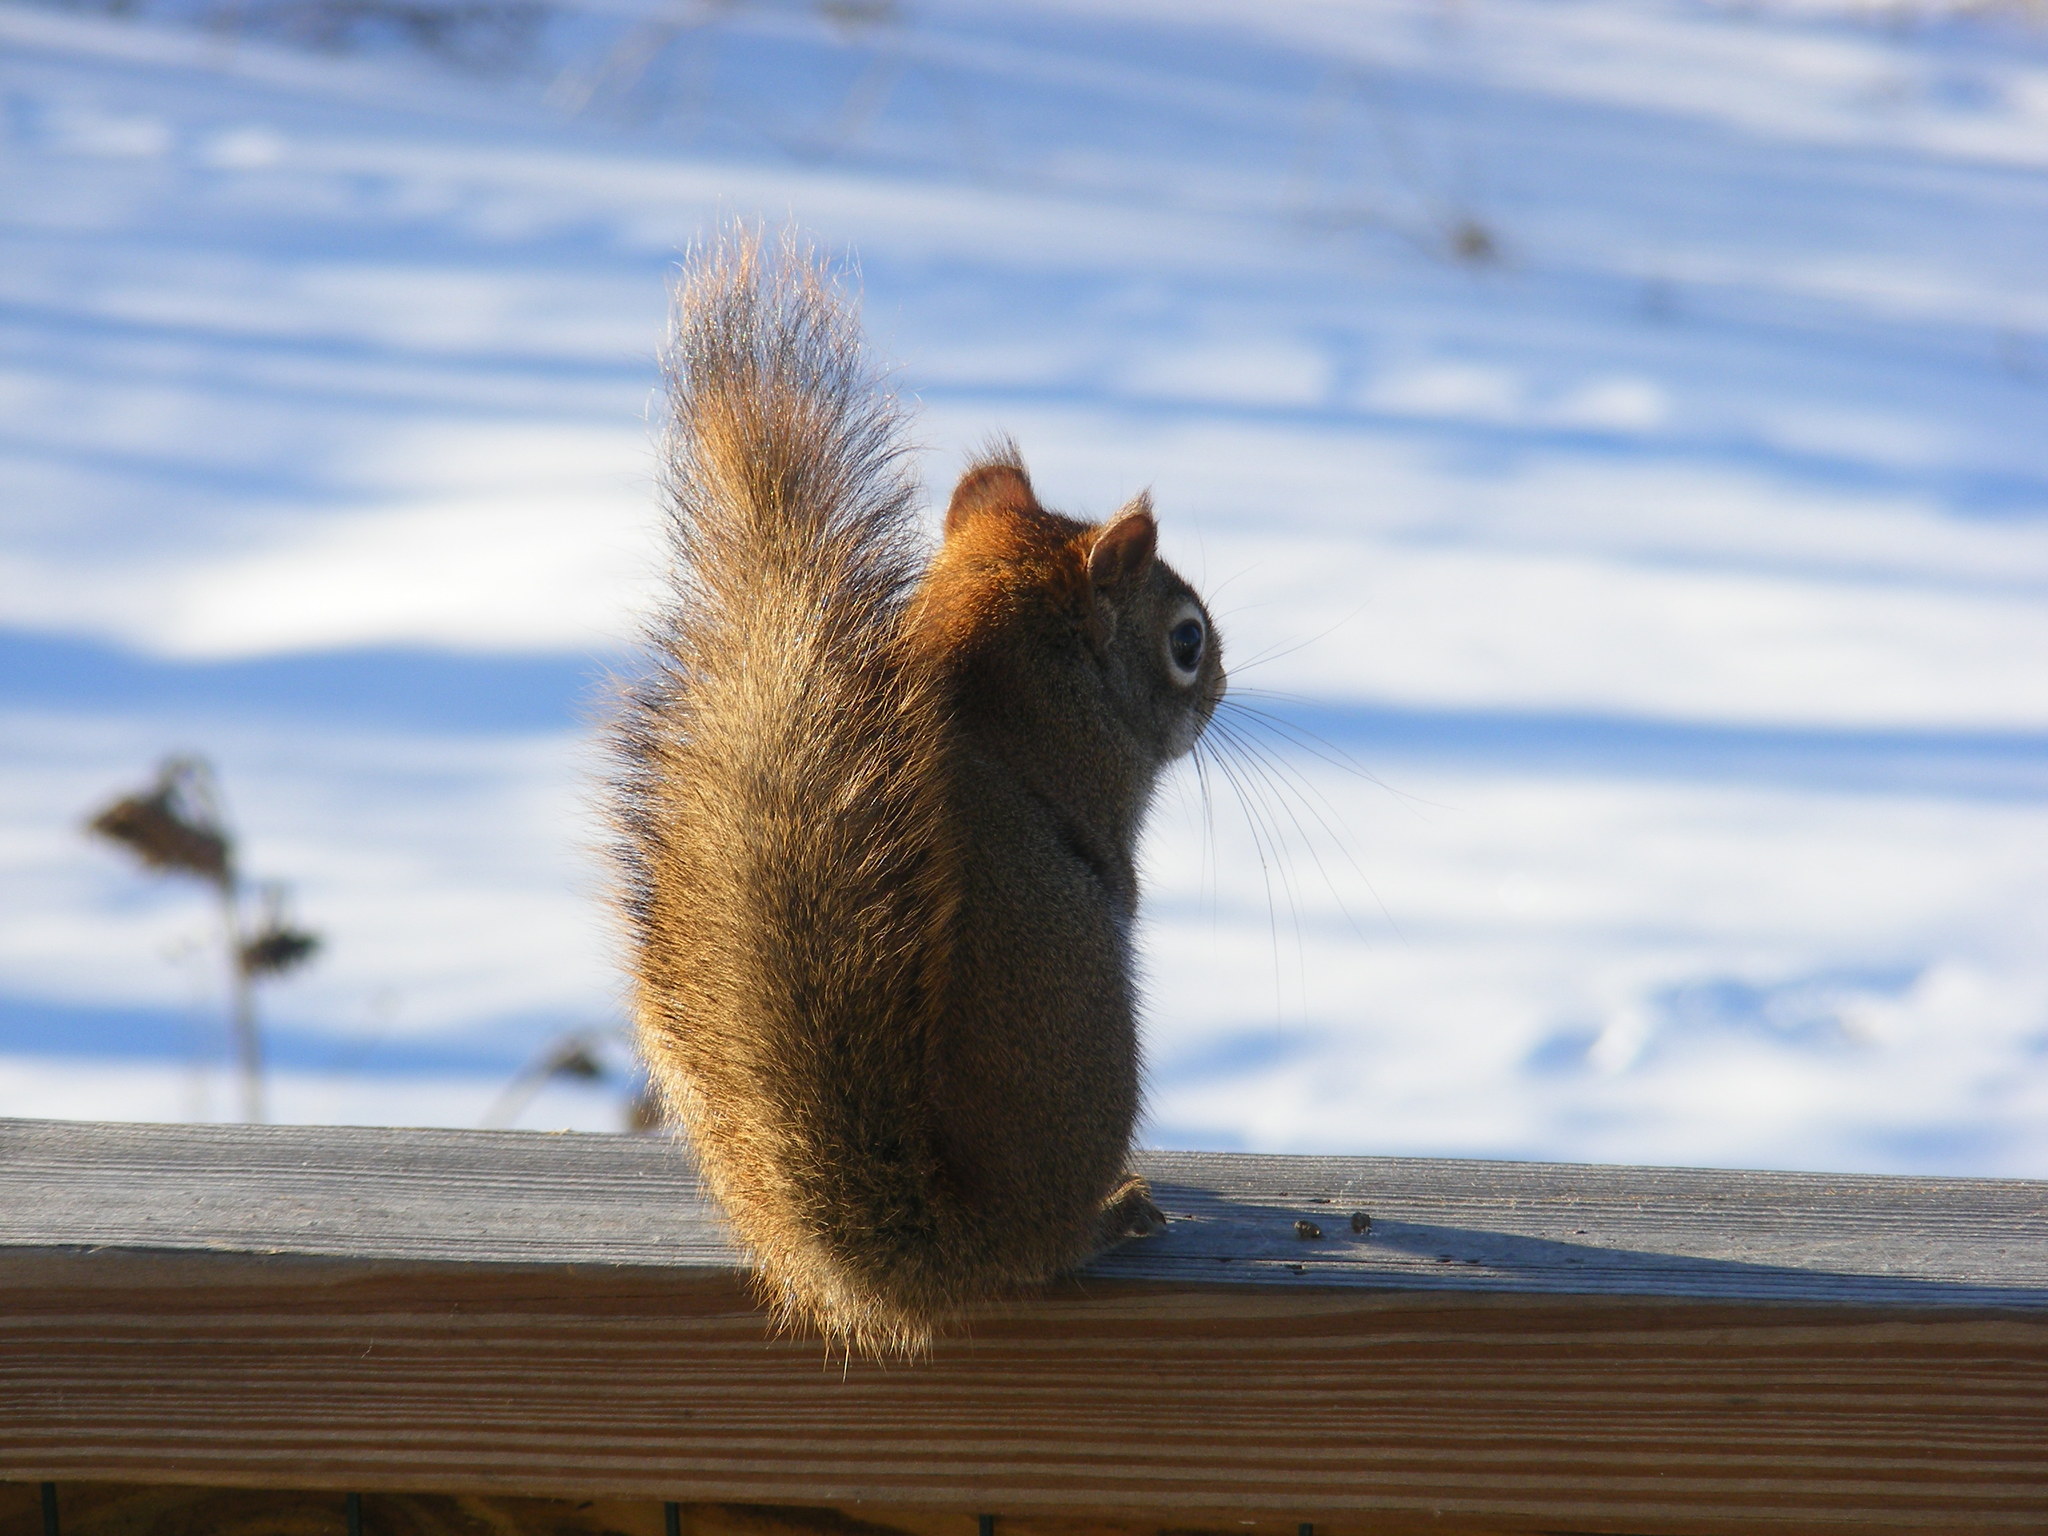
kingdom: Animalia
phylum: Chordata
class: Mammalia
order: Rodentia
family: Sciuridae
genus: Tamiasciurus
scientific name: Tamiasciurus hudsonicus
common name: Red squirrel
